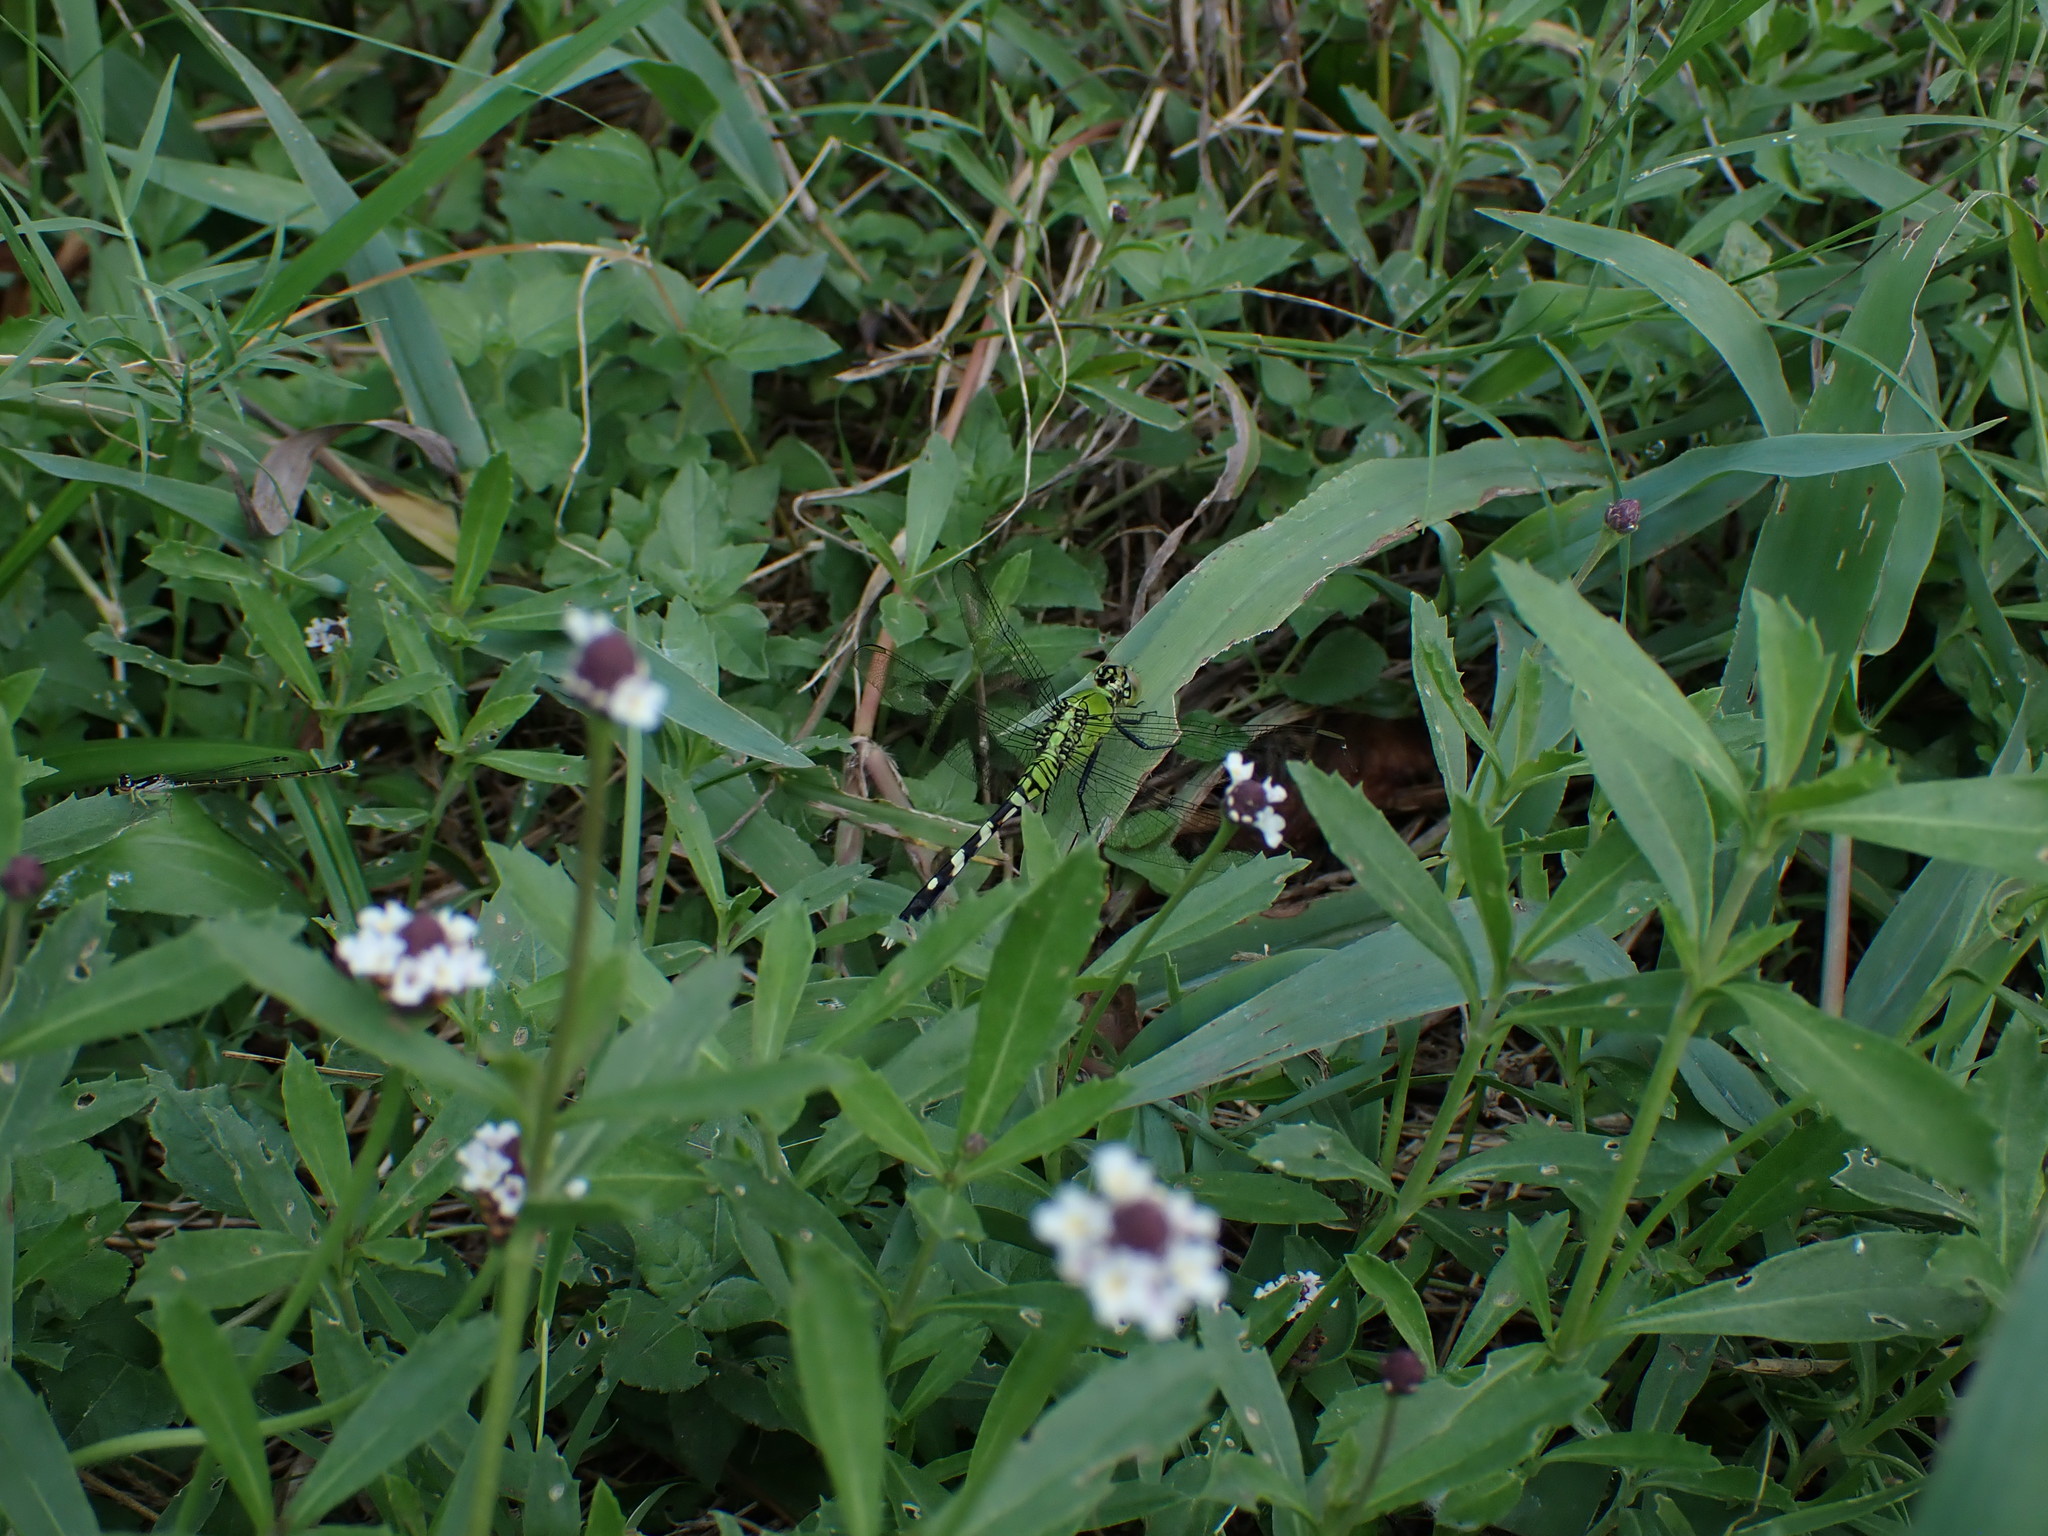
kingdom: Animalia
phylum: Arthropoda
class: Insecta
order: Odonata
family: Libellulidae
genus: Erythemis
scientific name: Erythemis simplicicollis
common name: Eastern pondhawk
